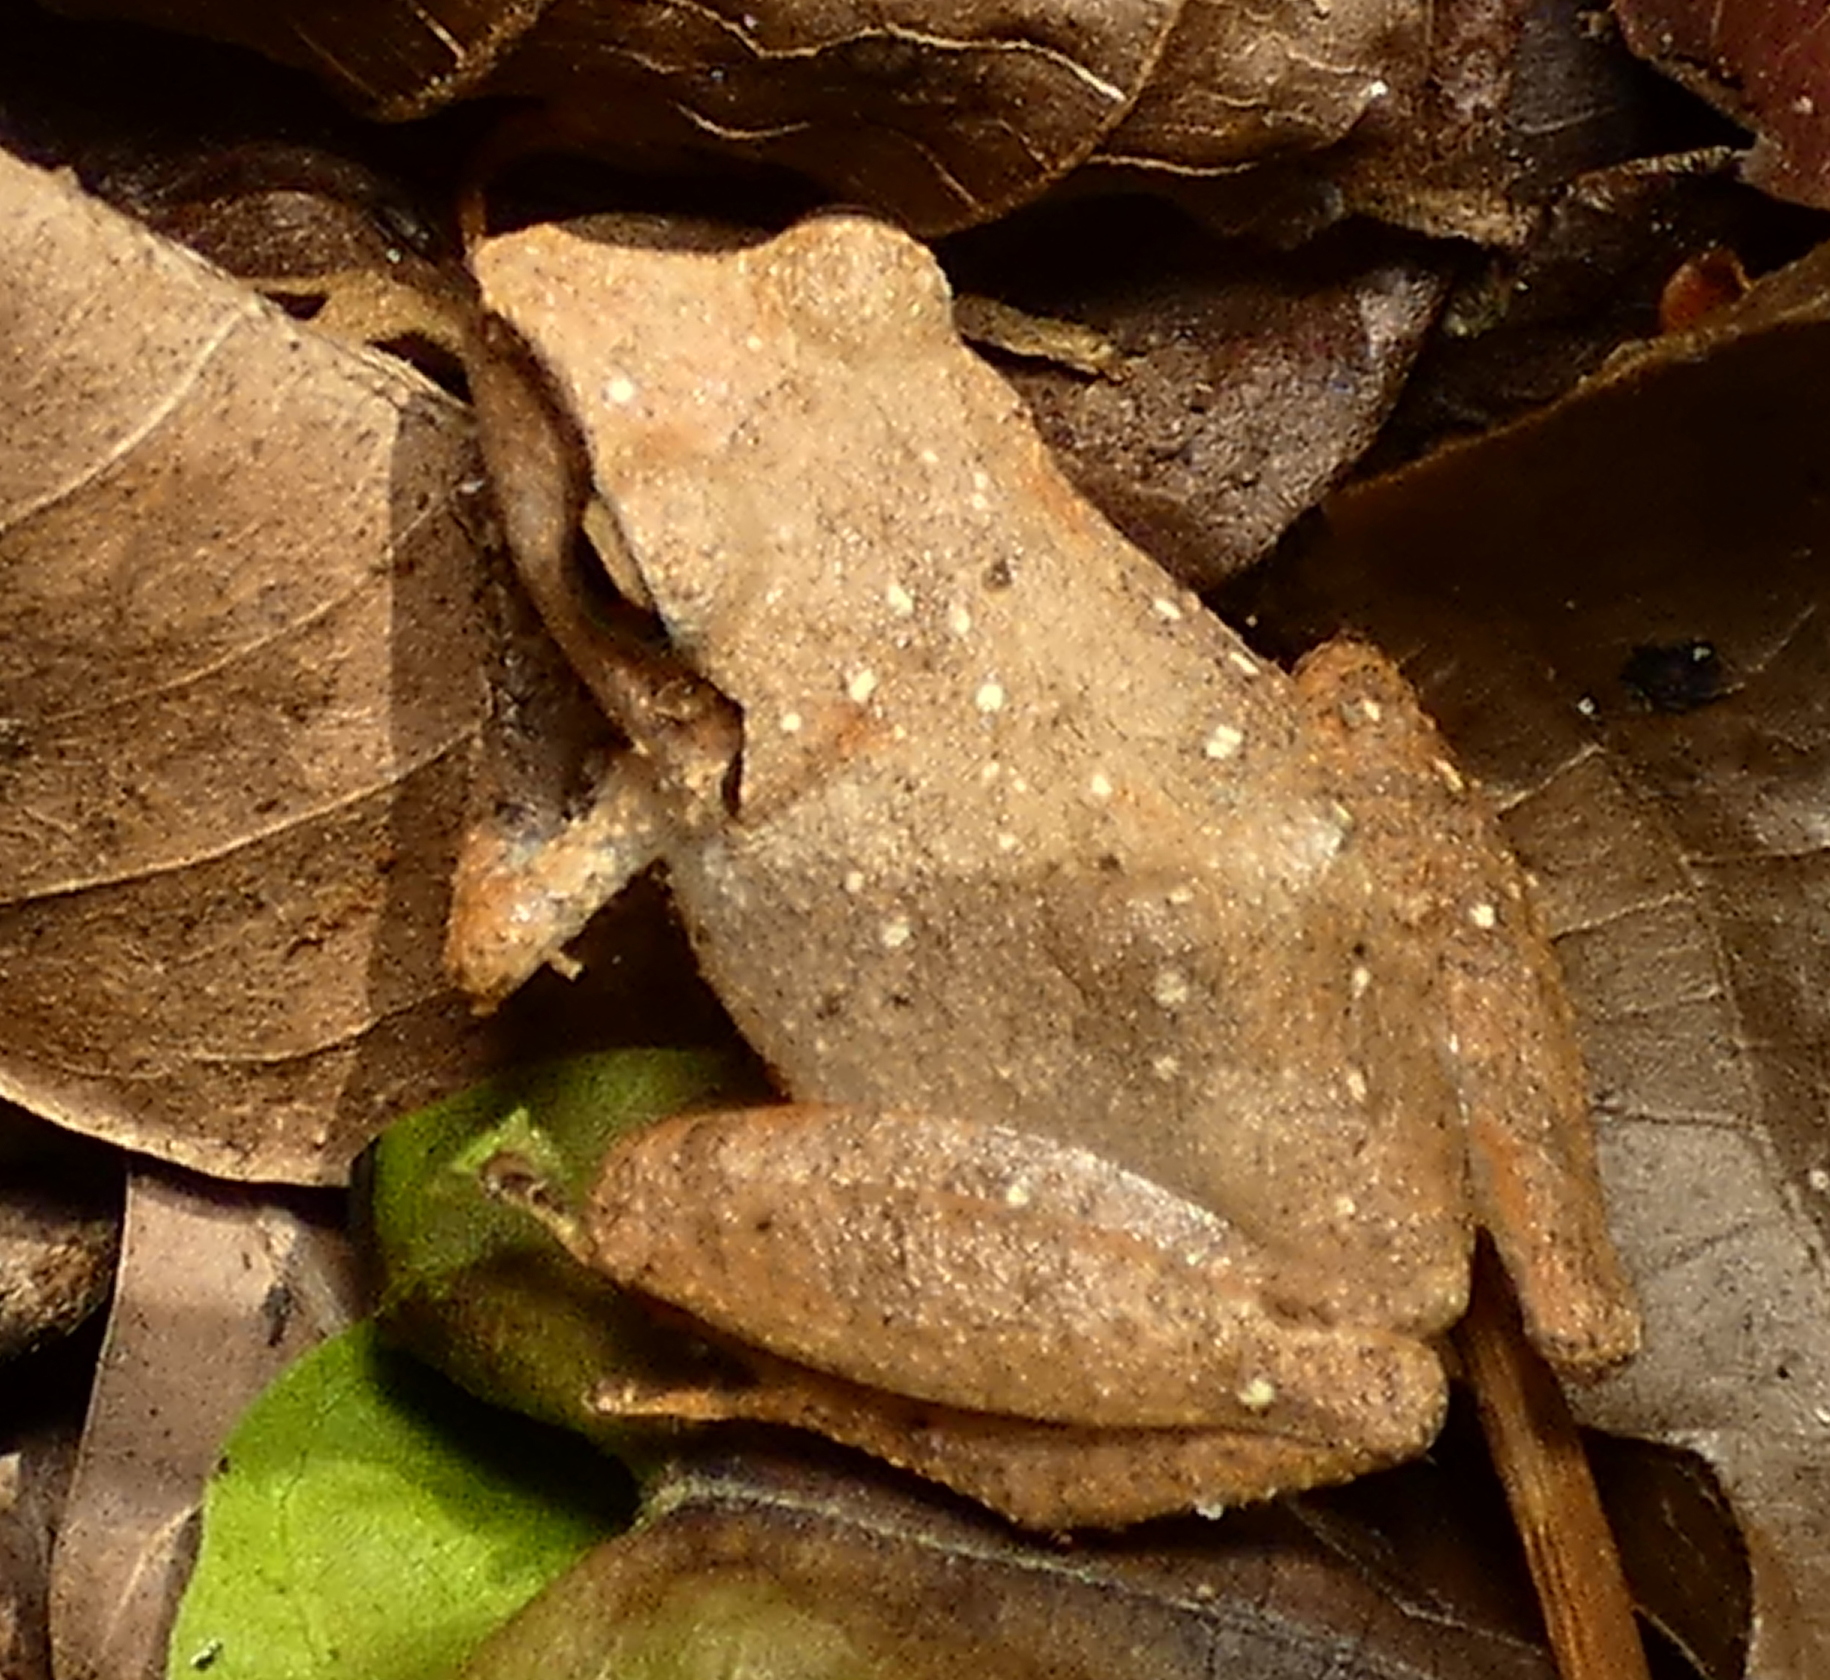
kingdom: Animalia
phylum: Chordata
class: Amphibia
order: Anura
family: Craugastoridae
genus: Pristimantis
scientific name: Pristimantis ramagii
